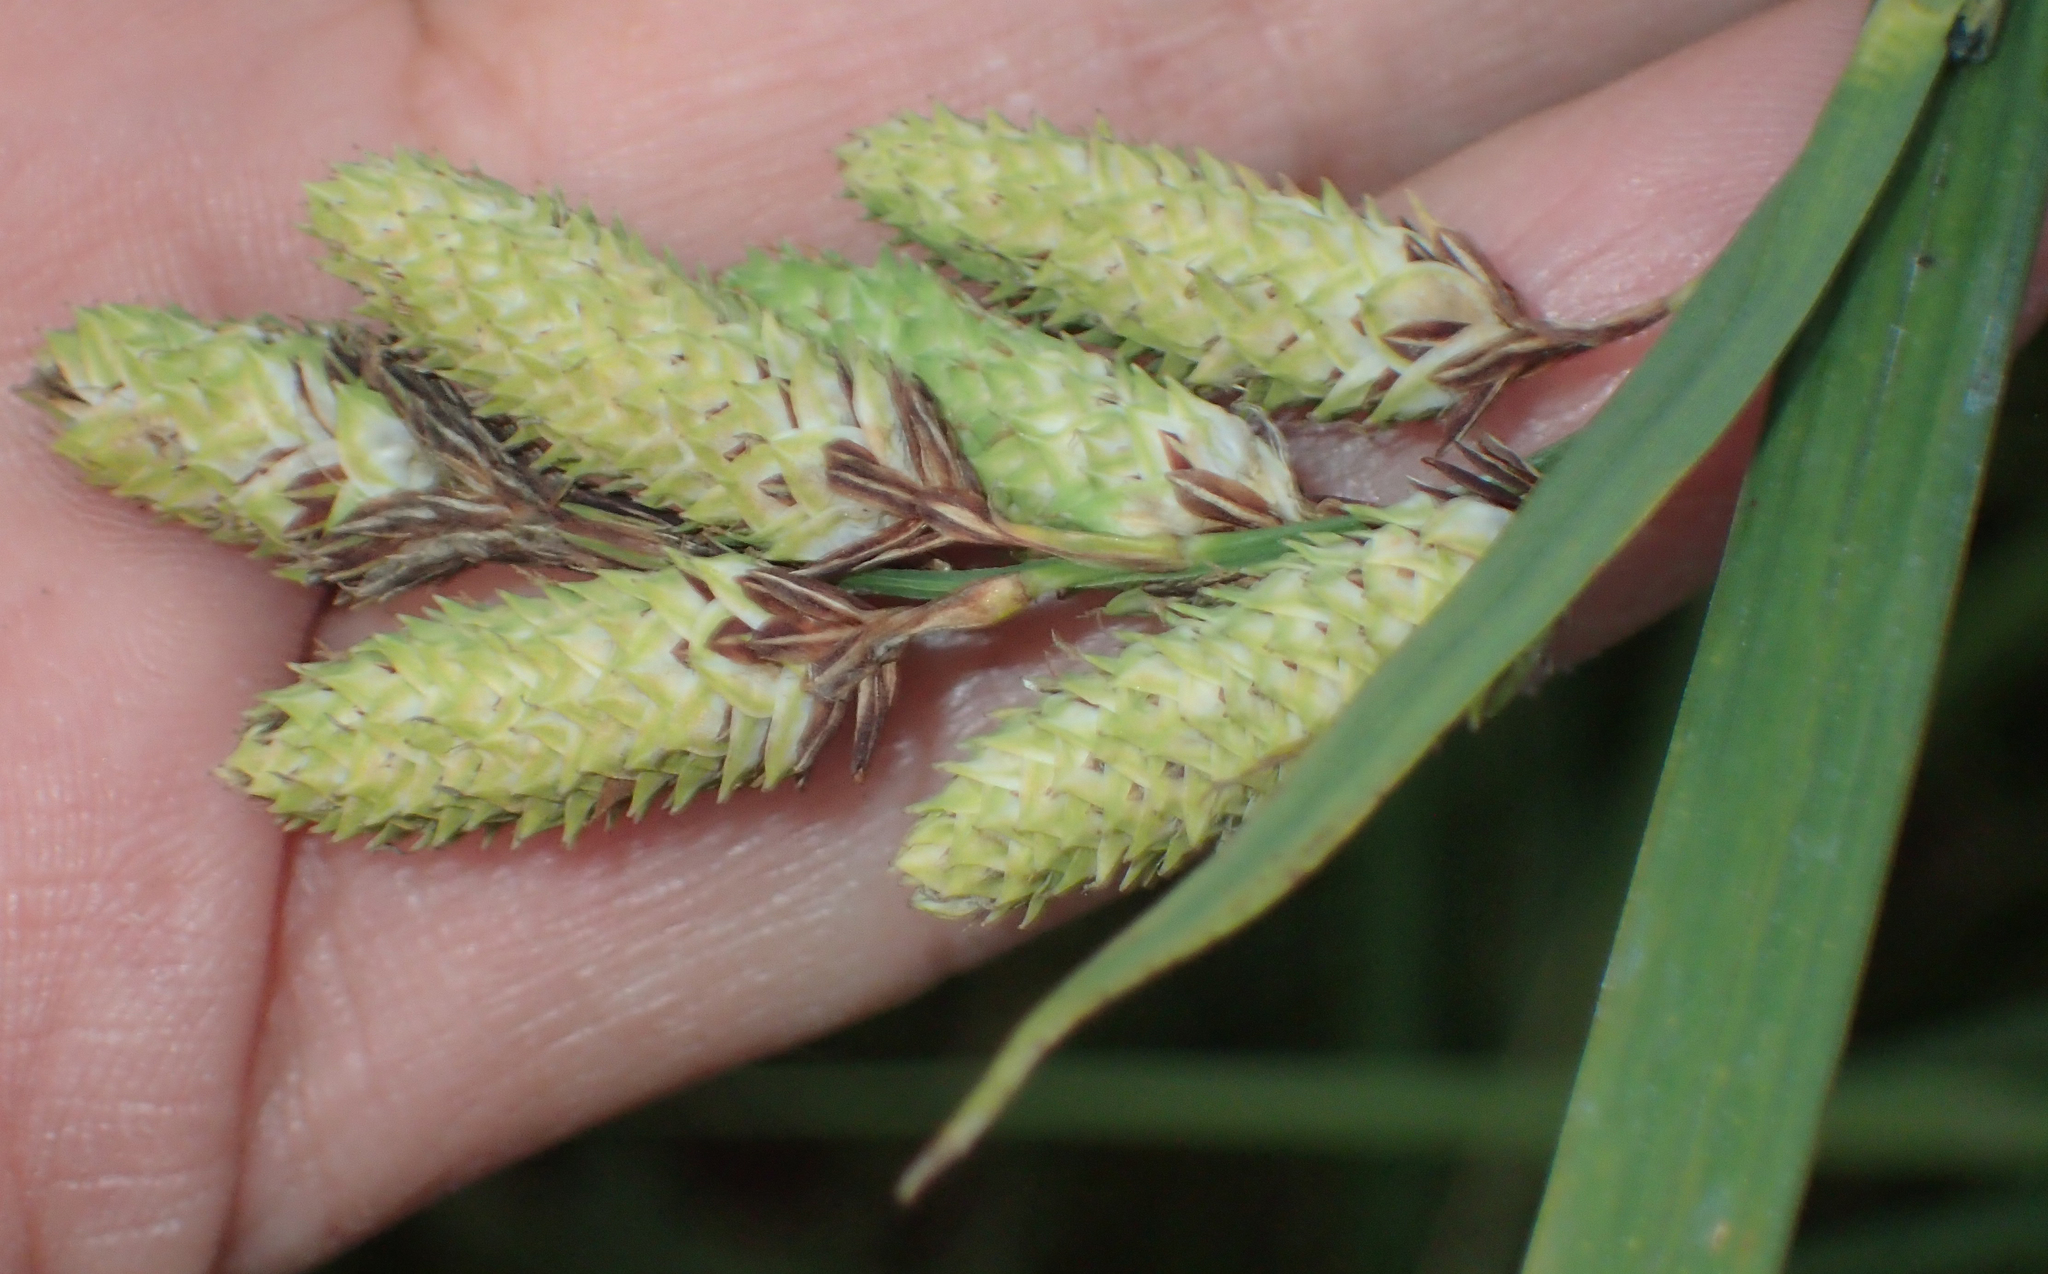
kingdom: Plantae
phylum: Tracheophyta
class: Liliopsida
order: Poales
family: Cyperaceae
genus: Carex
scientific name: Carex mertensii
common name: Mertens' sedge
